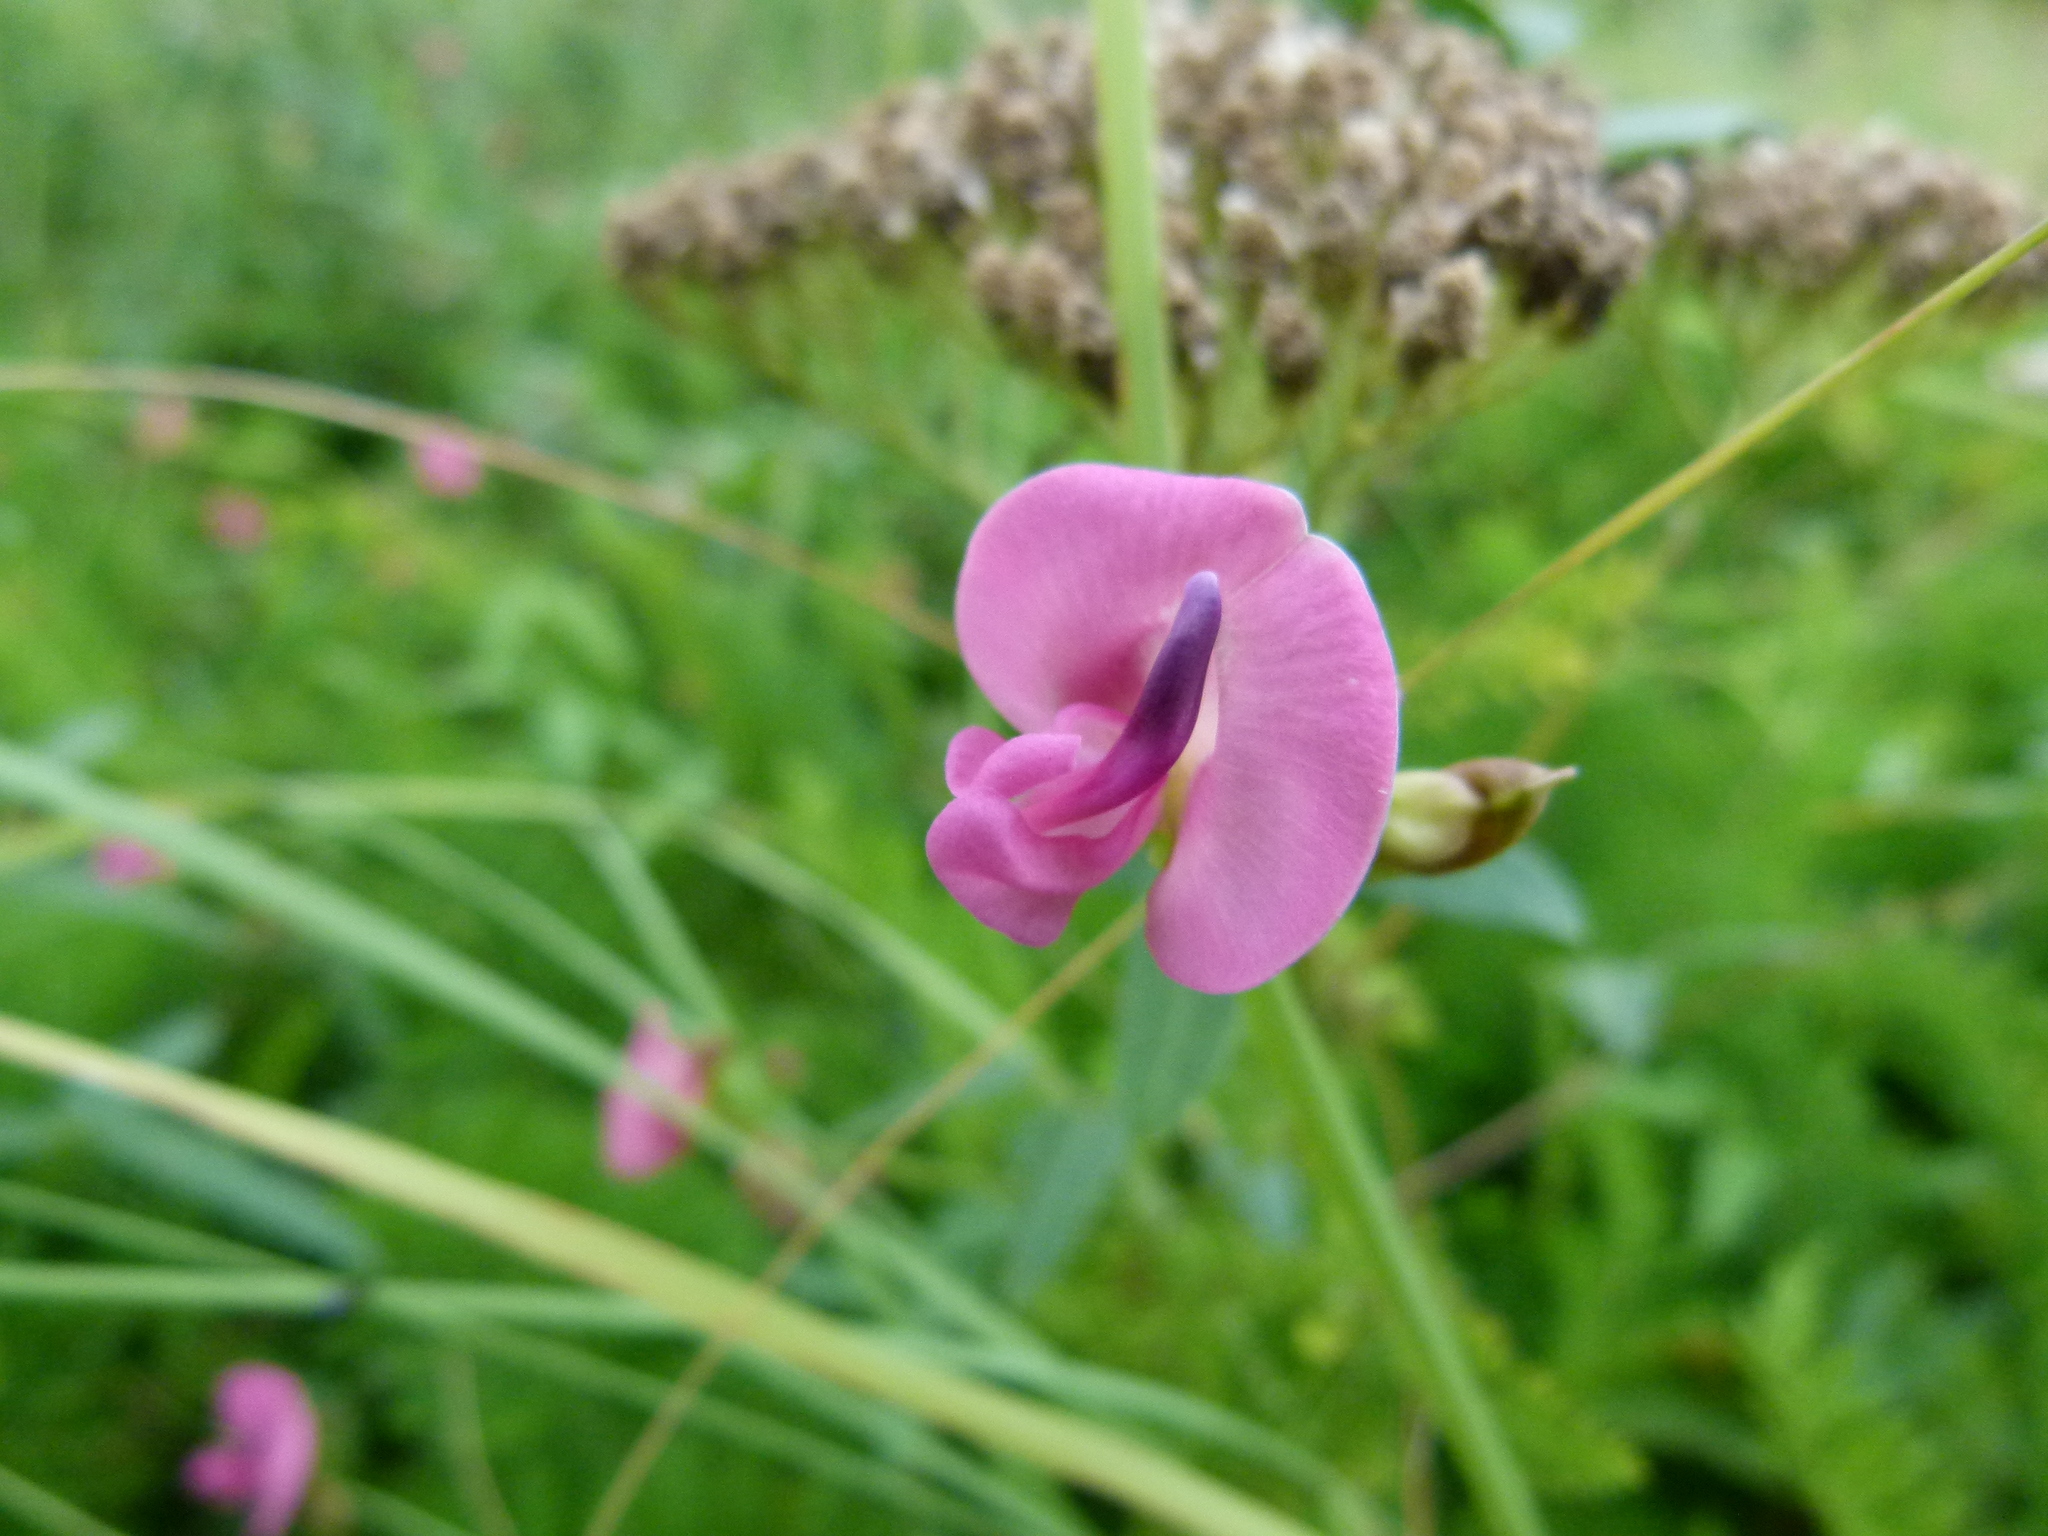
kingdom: Plantae
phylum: Tracheophyta
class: Magnoliopsida
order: Fabales
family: Fabaceae
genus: Strophostyles
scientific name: Strophostyles umbellata
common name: Perennial wild bean
